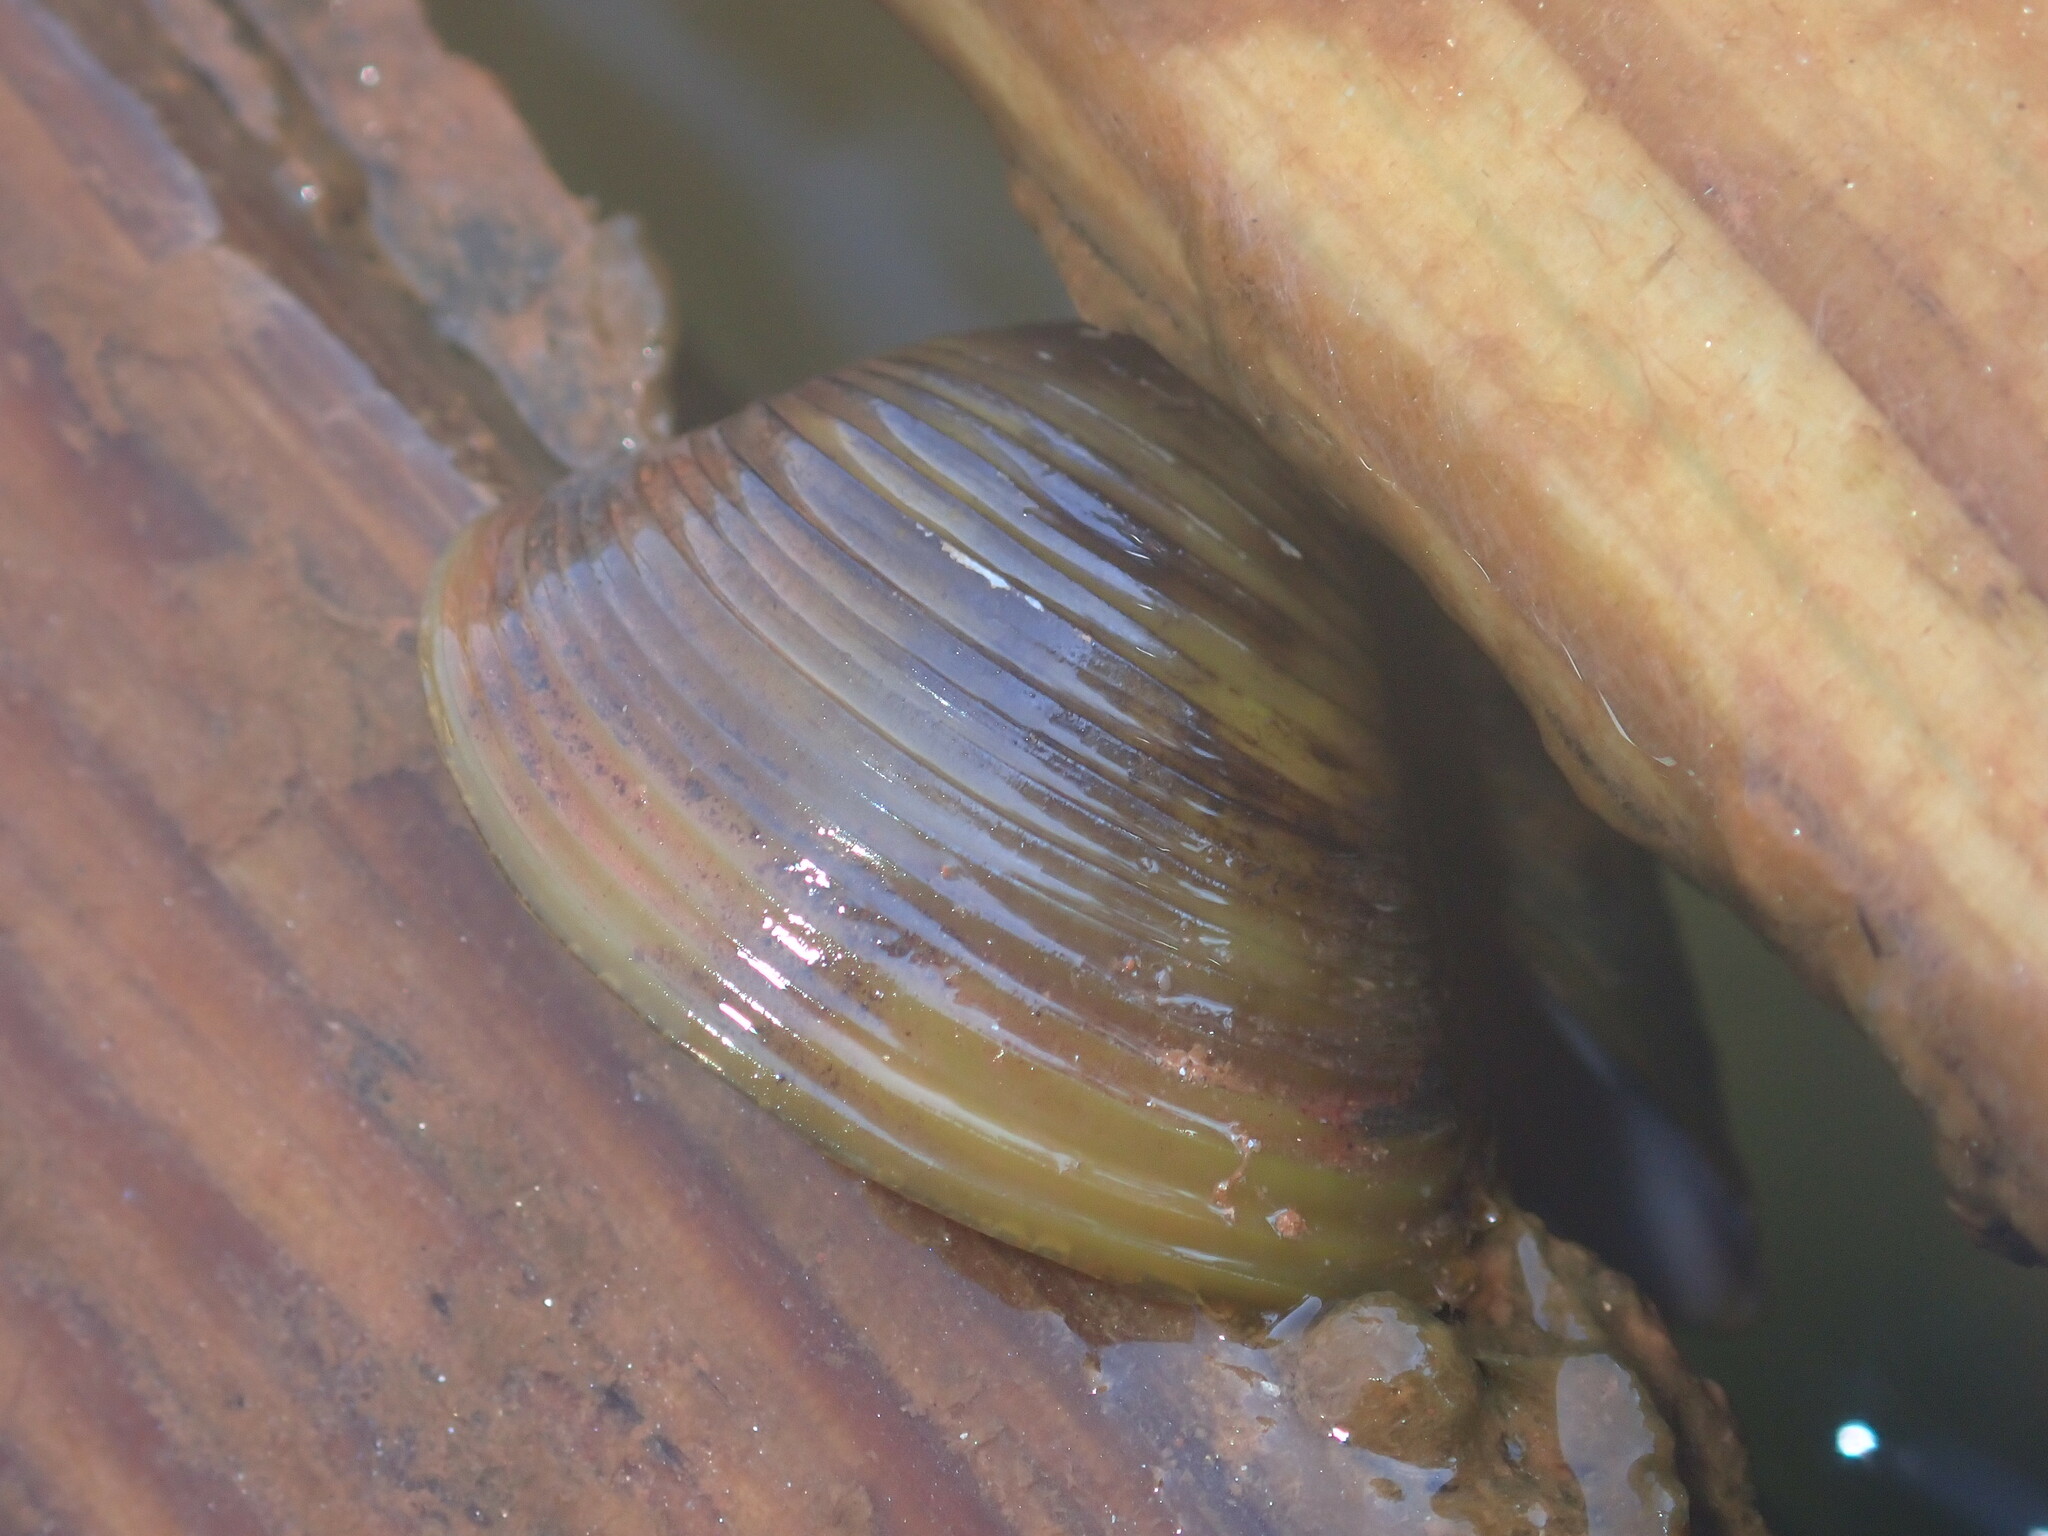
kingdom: Animalia
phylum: Mollusca
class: Bivalvia
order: Venerida
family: Cyrenidae
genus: Corbicula
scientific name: Corbicula fluminea
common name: Asian clam
